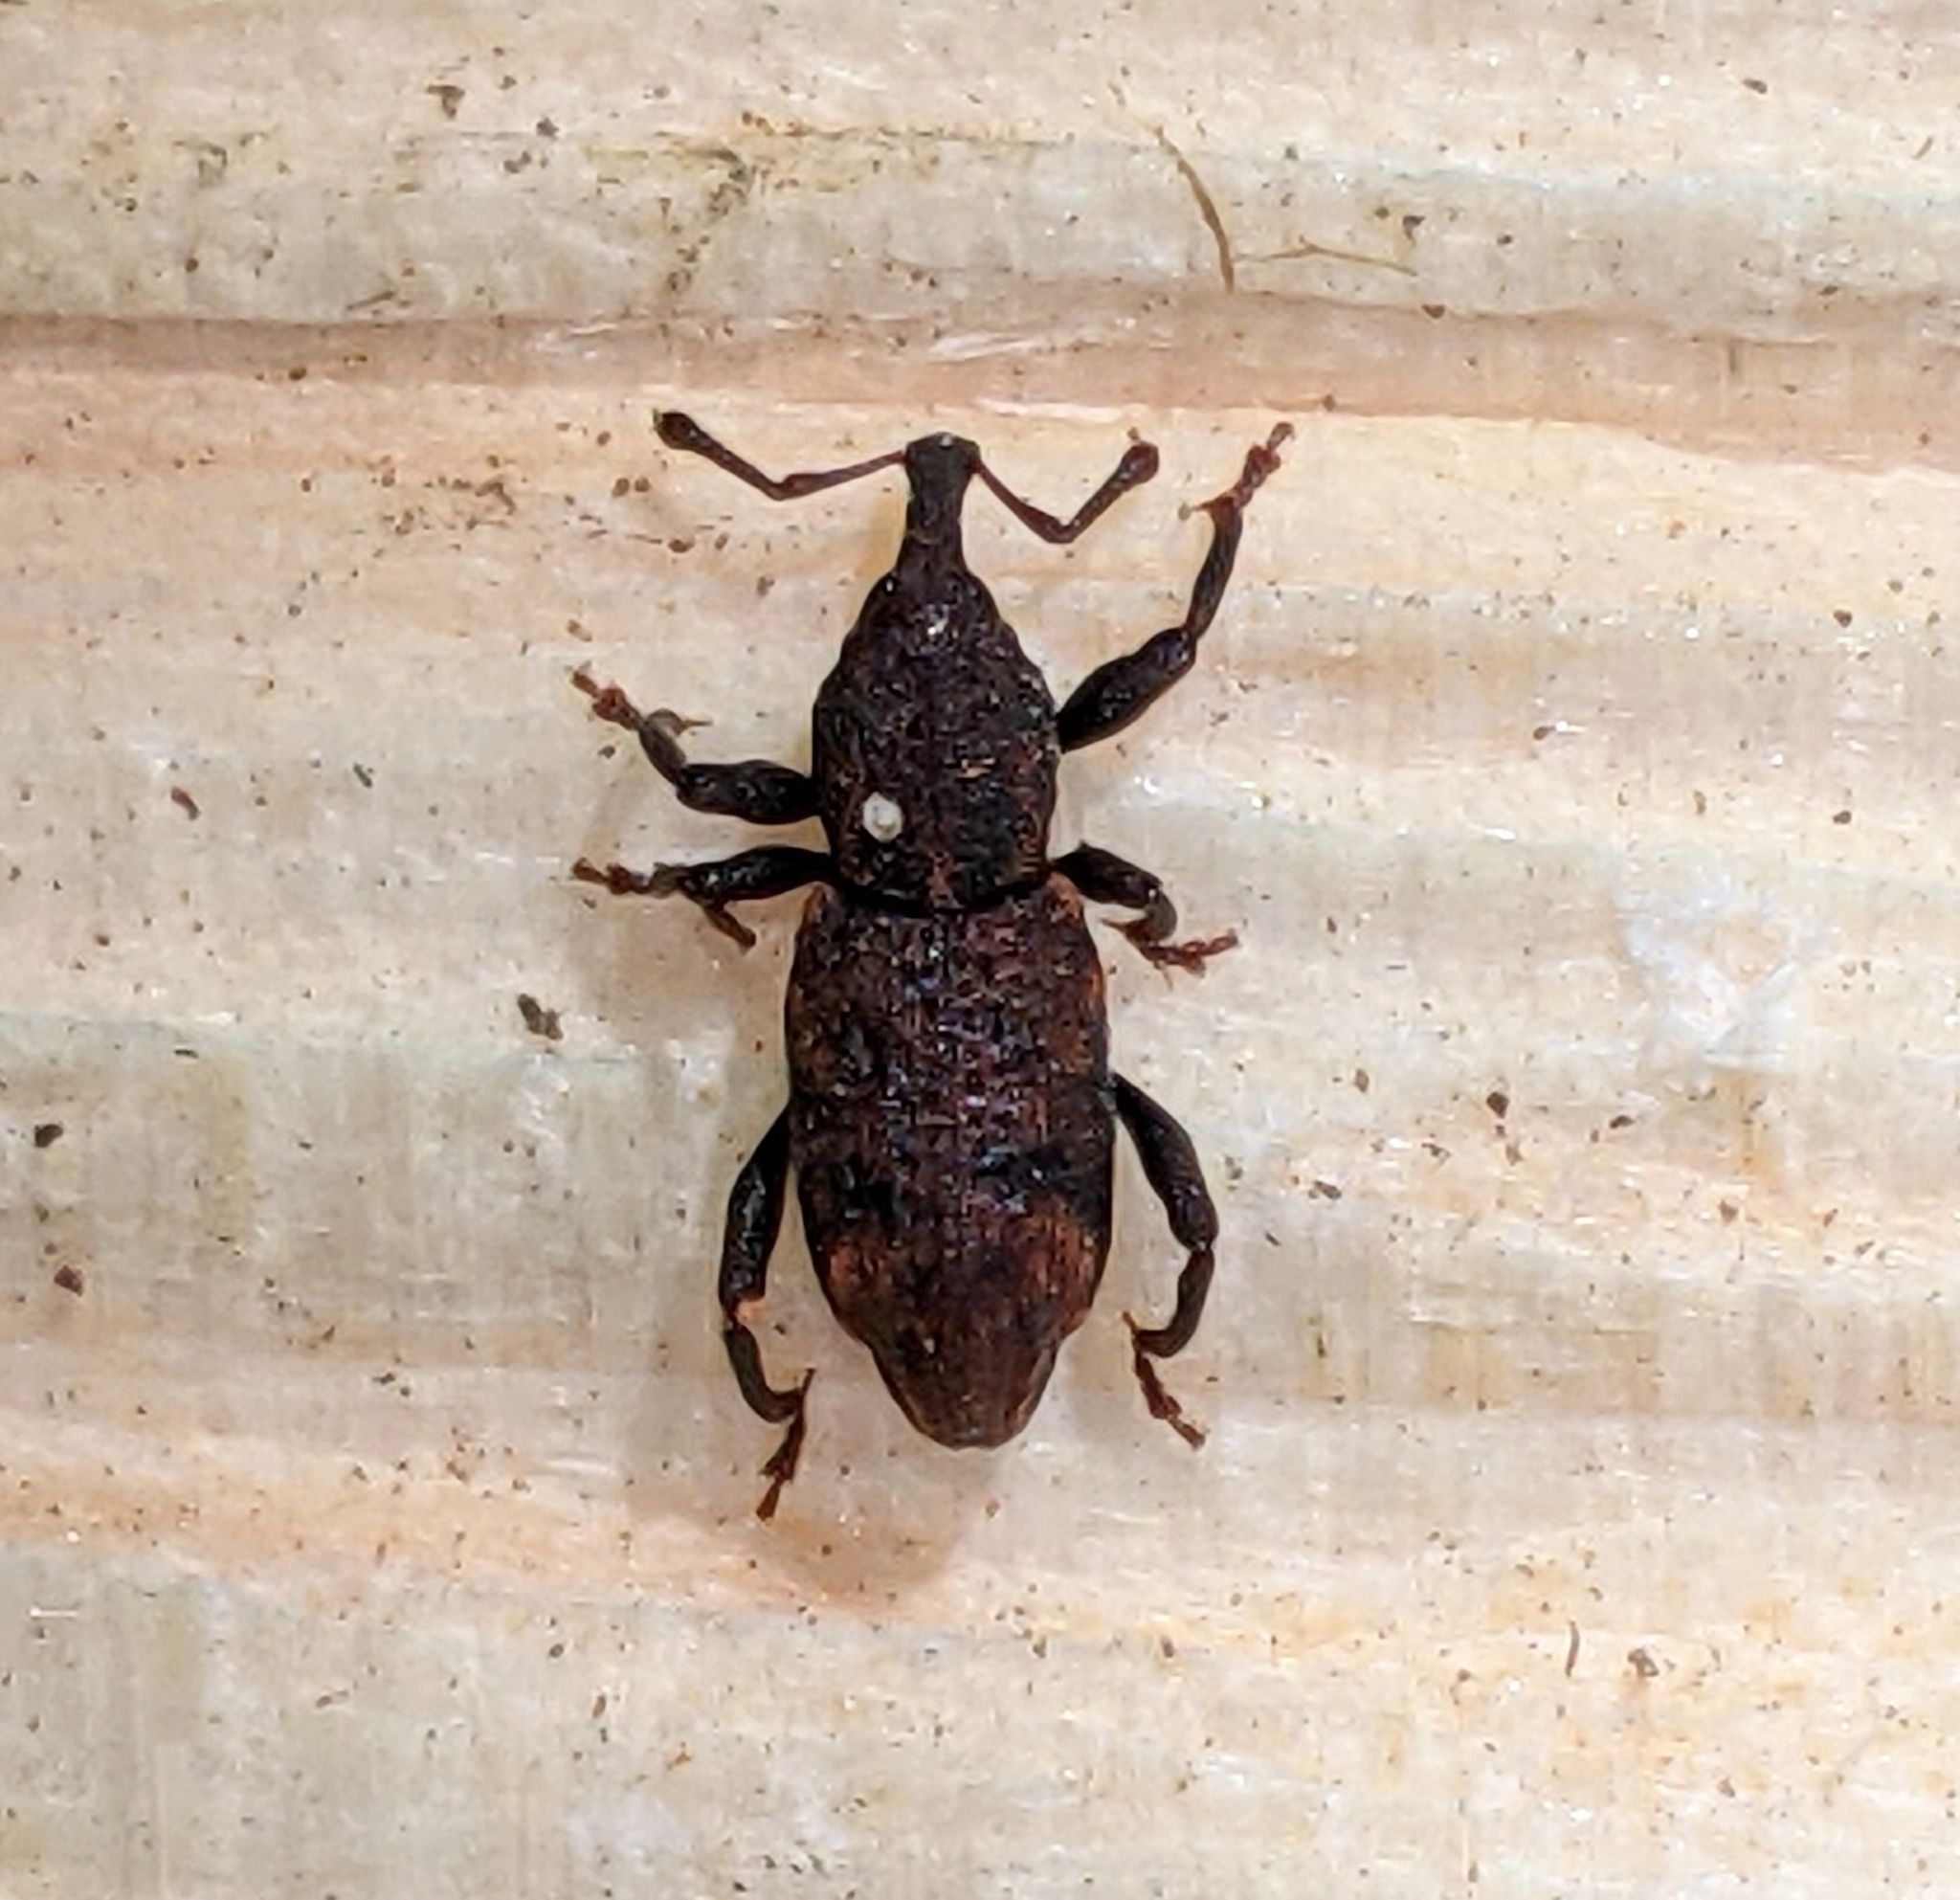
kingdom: Animalia
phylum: Arthropoda
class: Insecta
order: Coleoptera
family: Curculionidae
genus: Steremnius
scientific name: Steremnius carinatus
